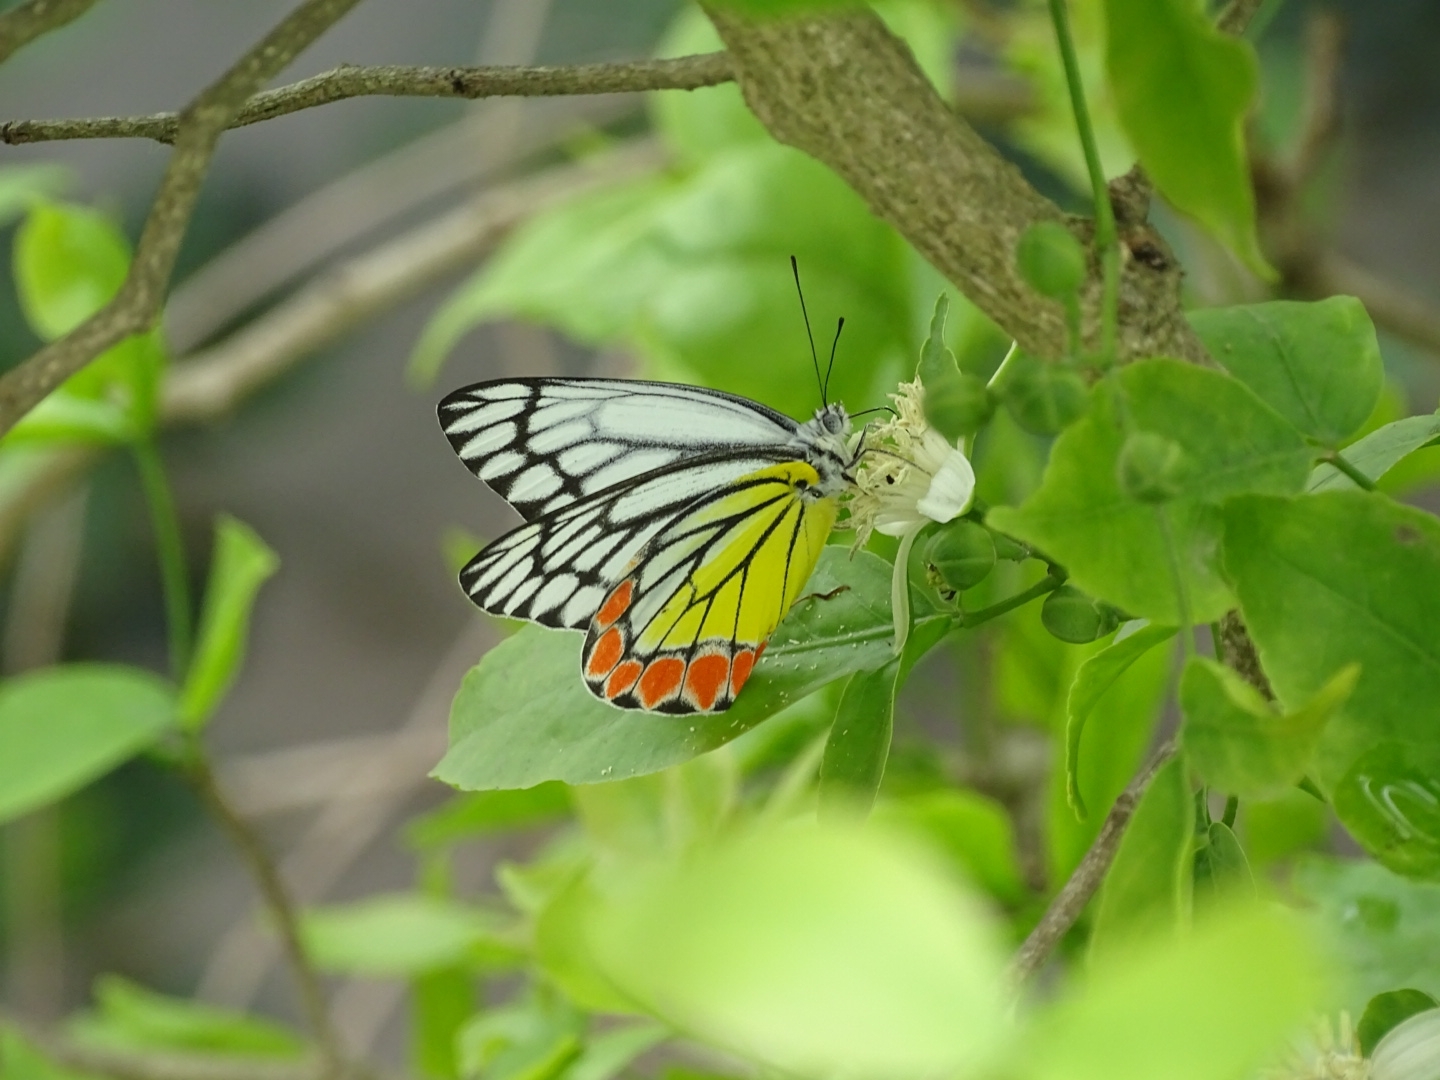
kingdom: Animalia
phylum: Arthropoda
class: Insecta
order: Lepidoptera
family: Pieridae
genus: Delias
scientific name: Delias eucharis
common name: Common jezebel
